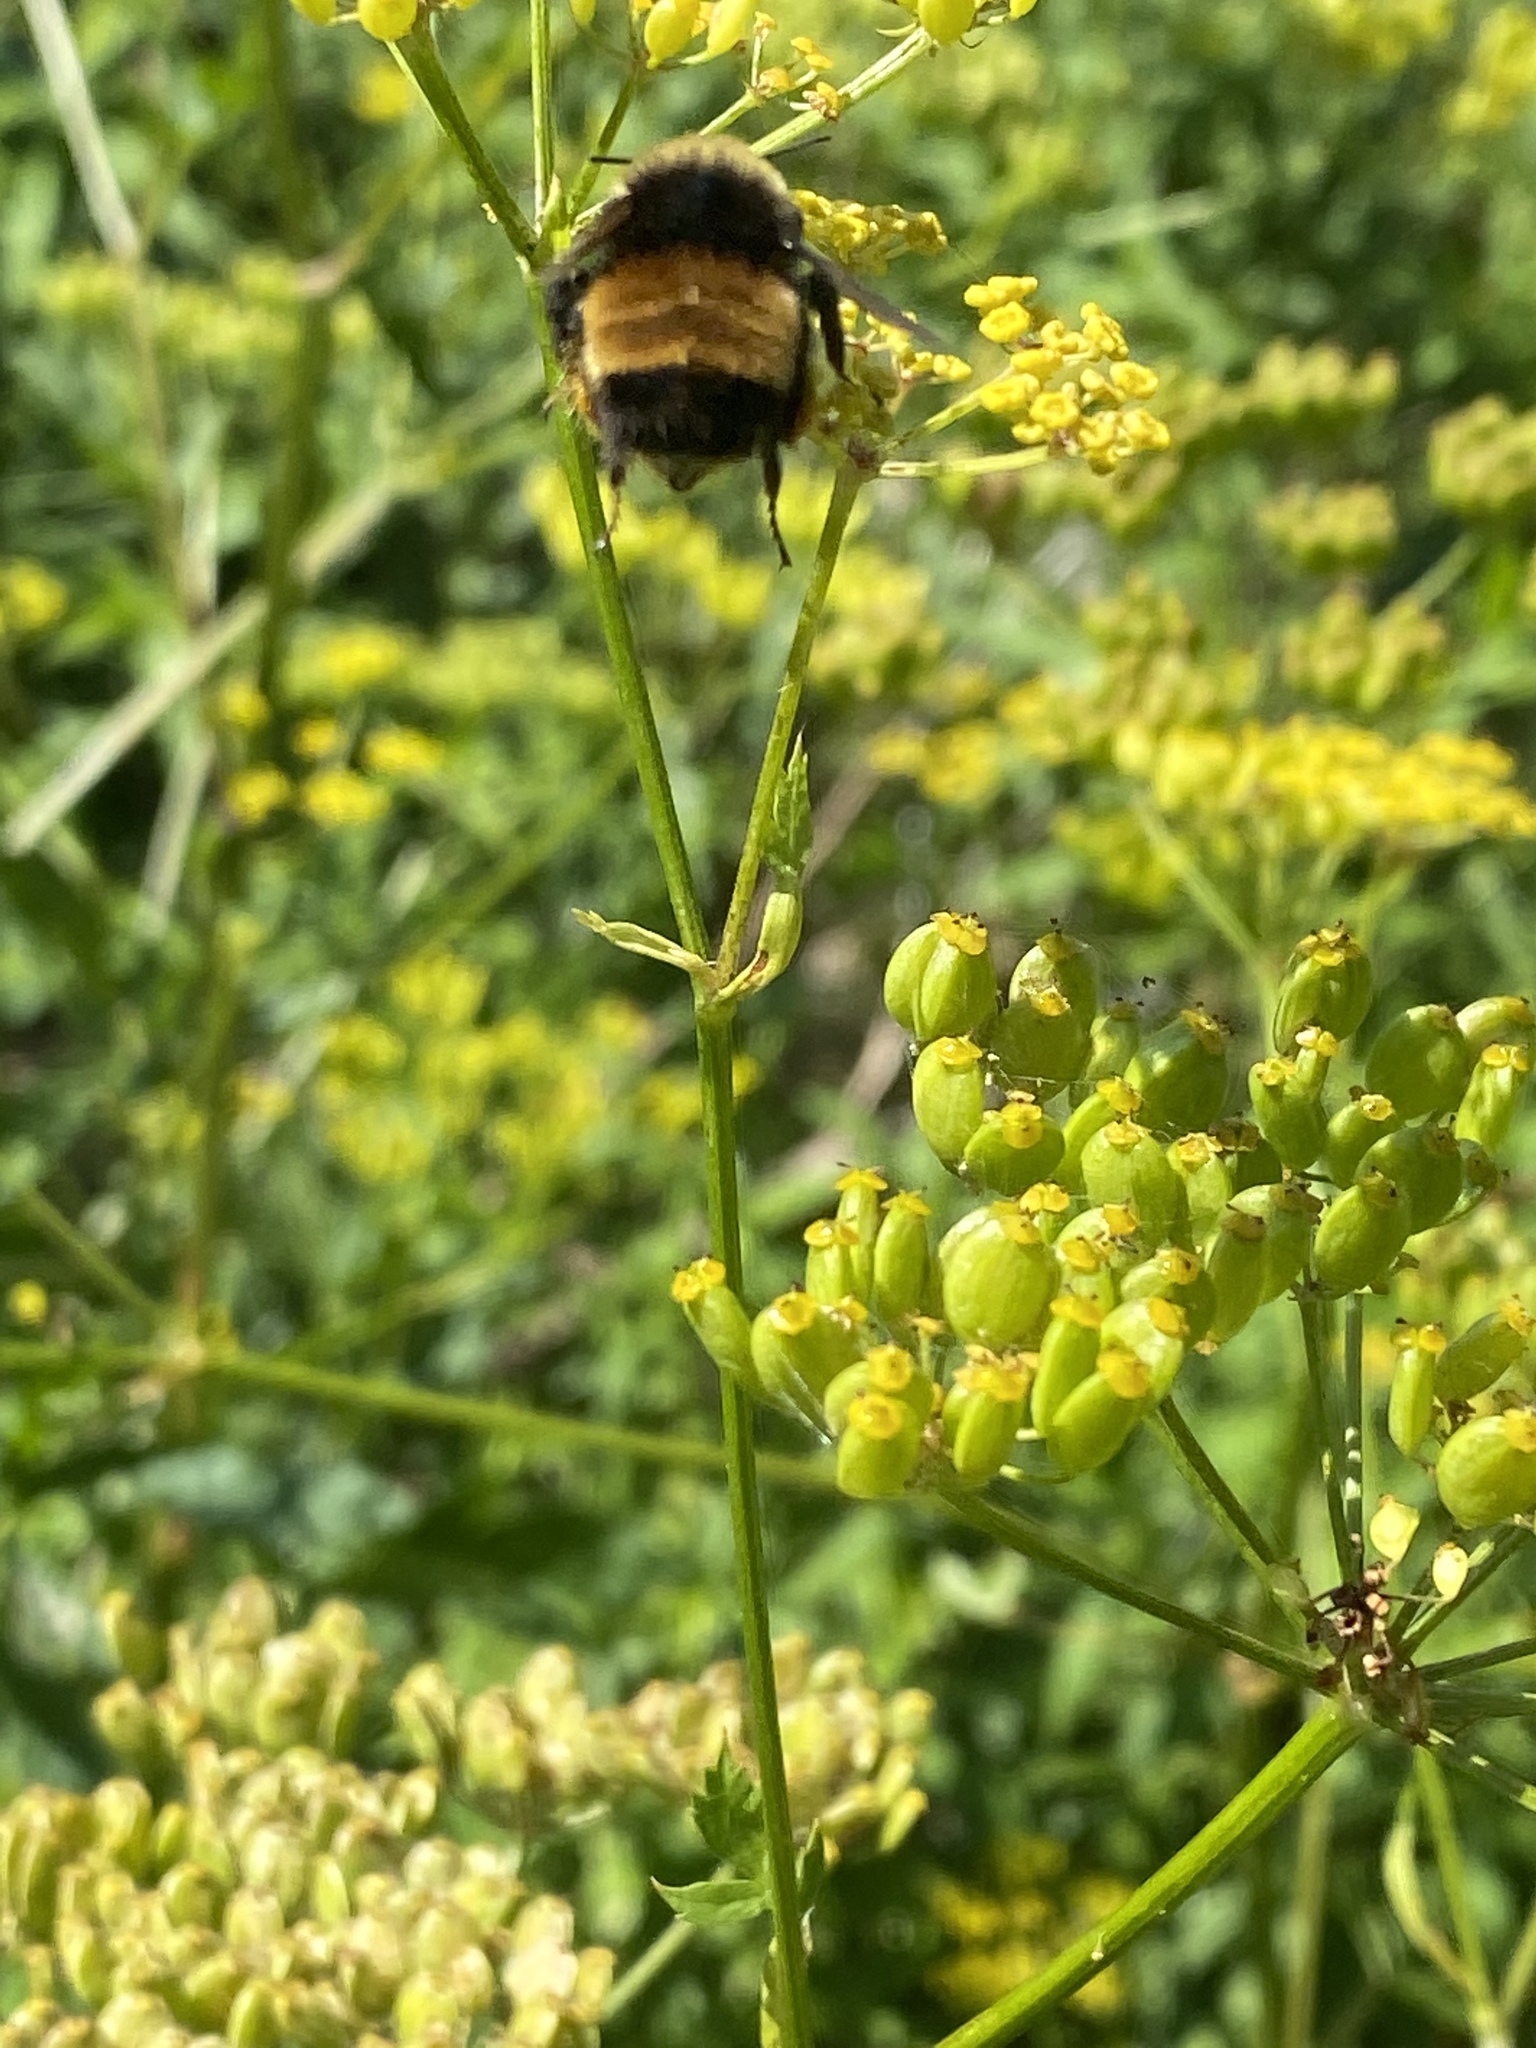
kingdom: Animalia
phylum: Arthropoda
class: Insecta
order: Hymenoptera
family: Apidae
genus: Bombus
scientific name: Bombus terricola
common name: Yellow-banded bumble bee
